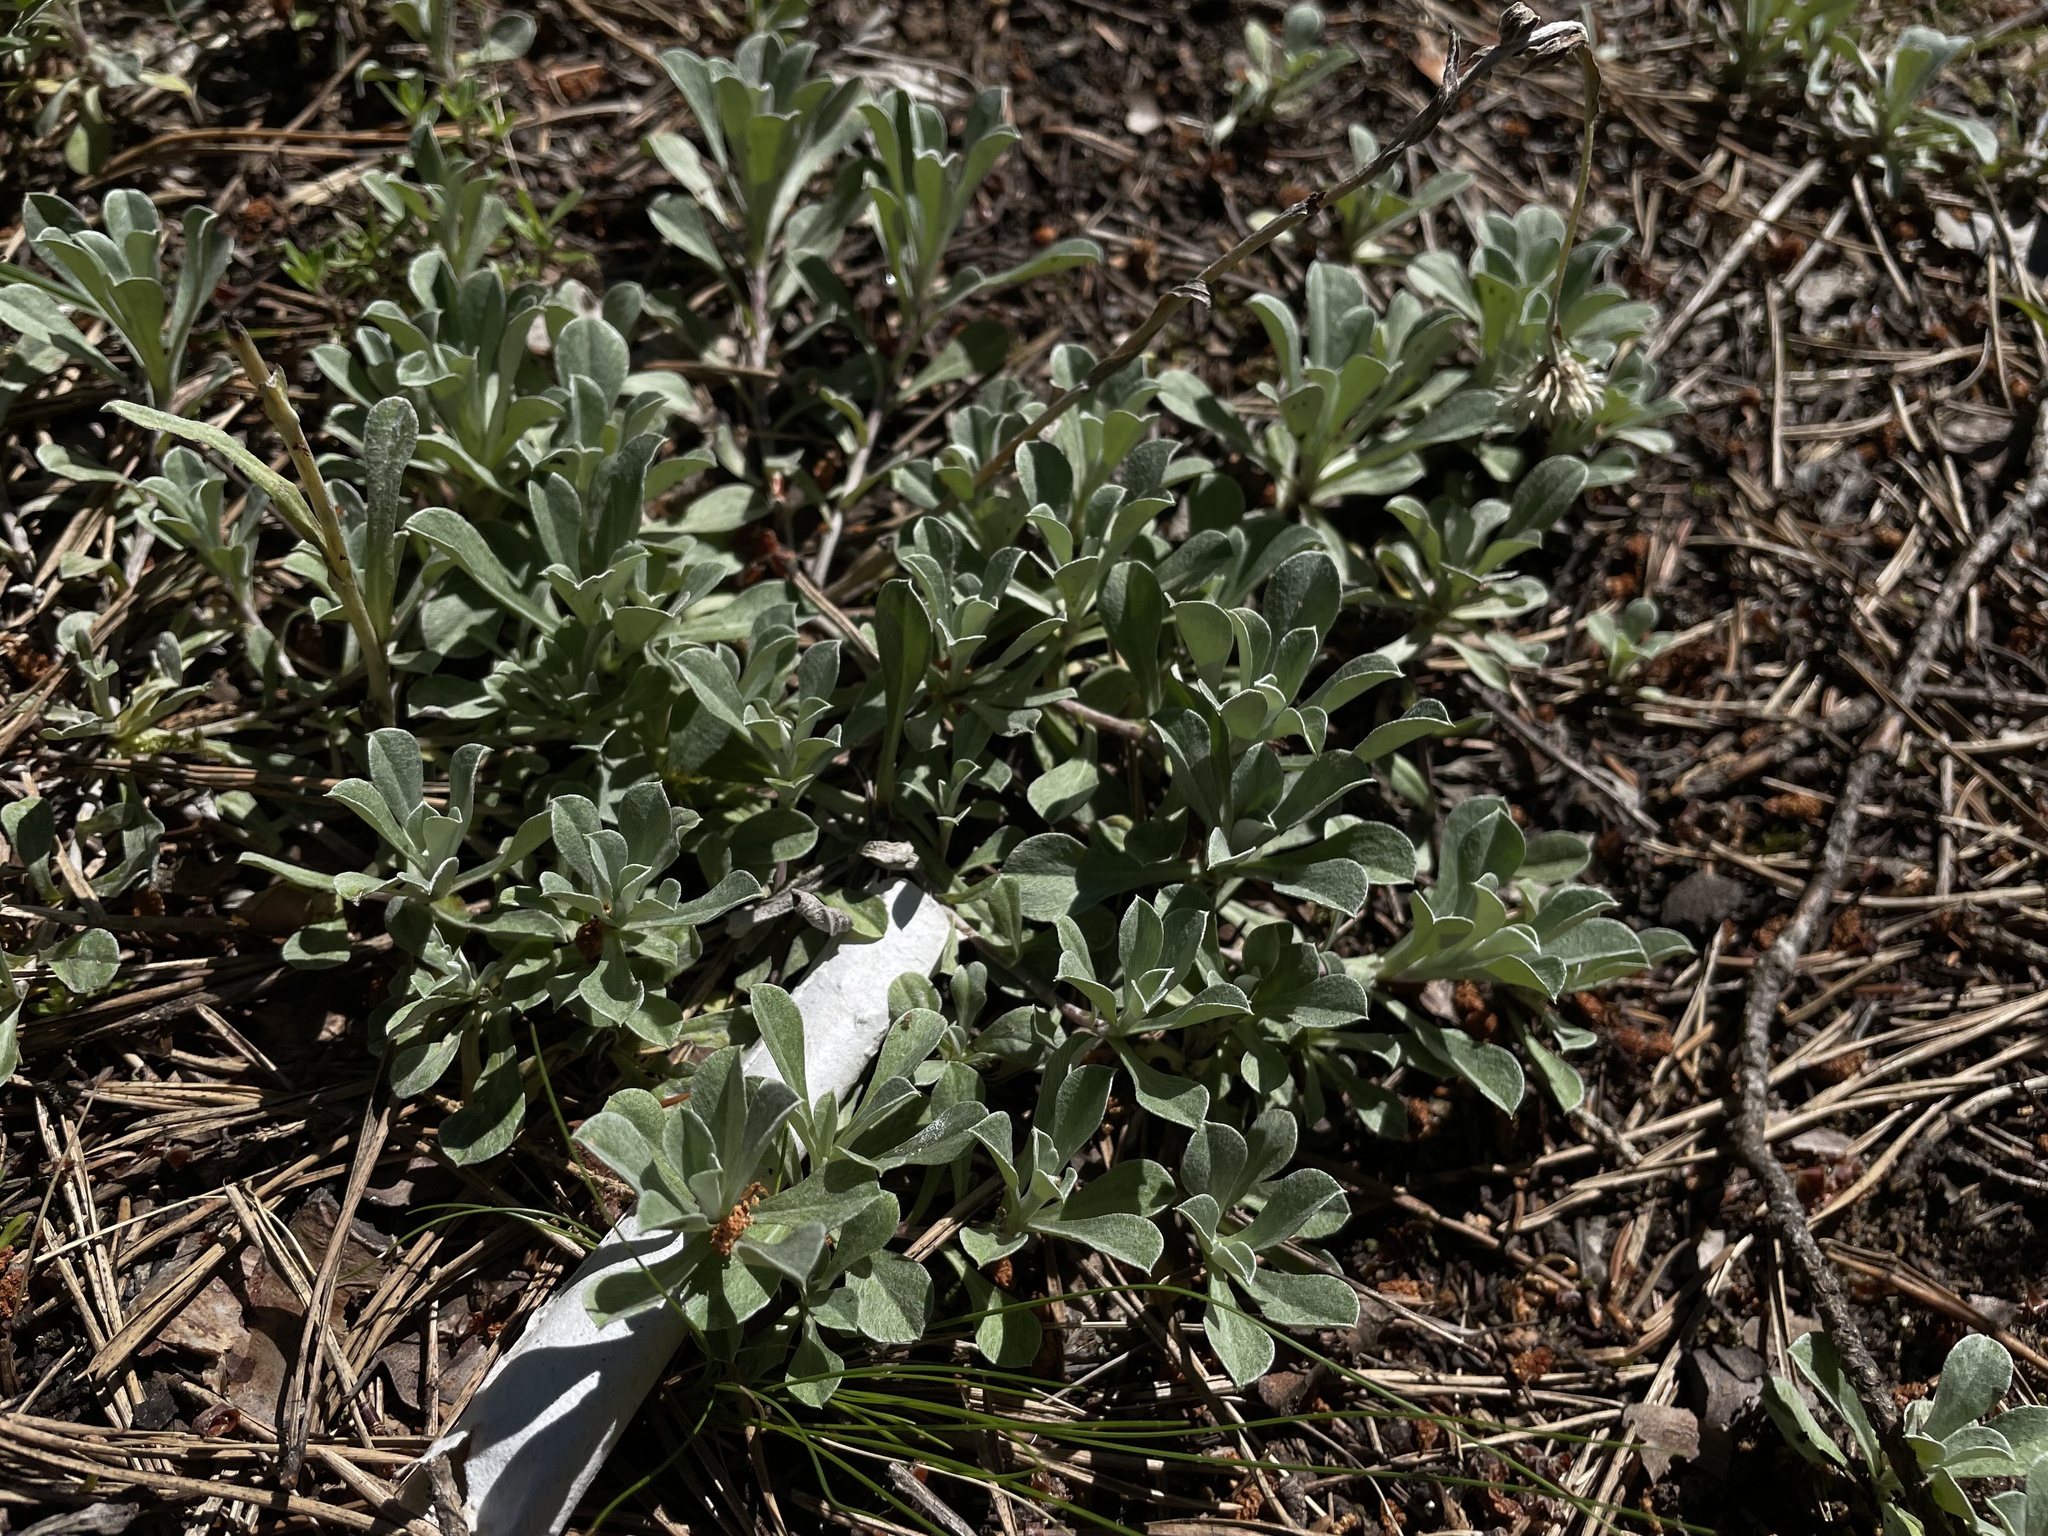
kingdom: Plantae
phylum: Tracheophyta
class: Magnoliopsida
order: Asterales
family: Asteraceae
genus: Antennaria
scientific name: Antennaria dioica
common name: Mountain everlasting
